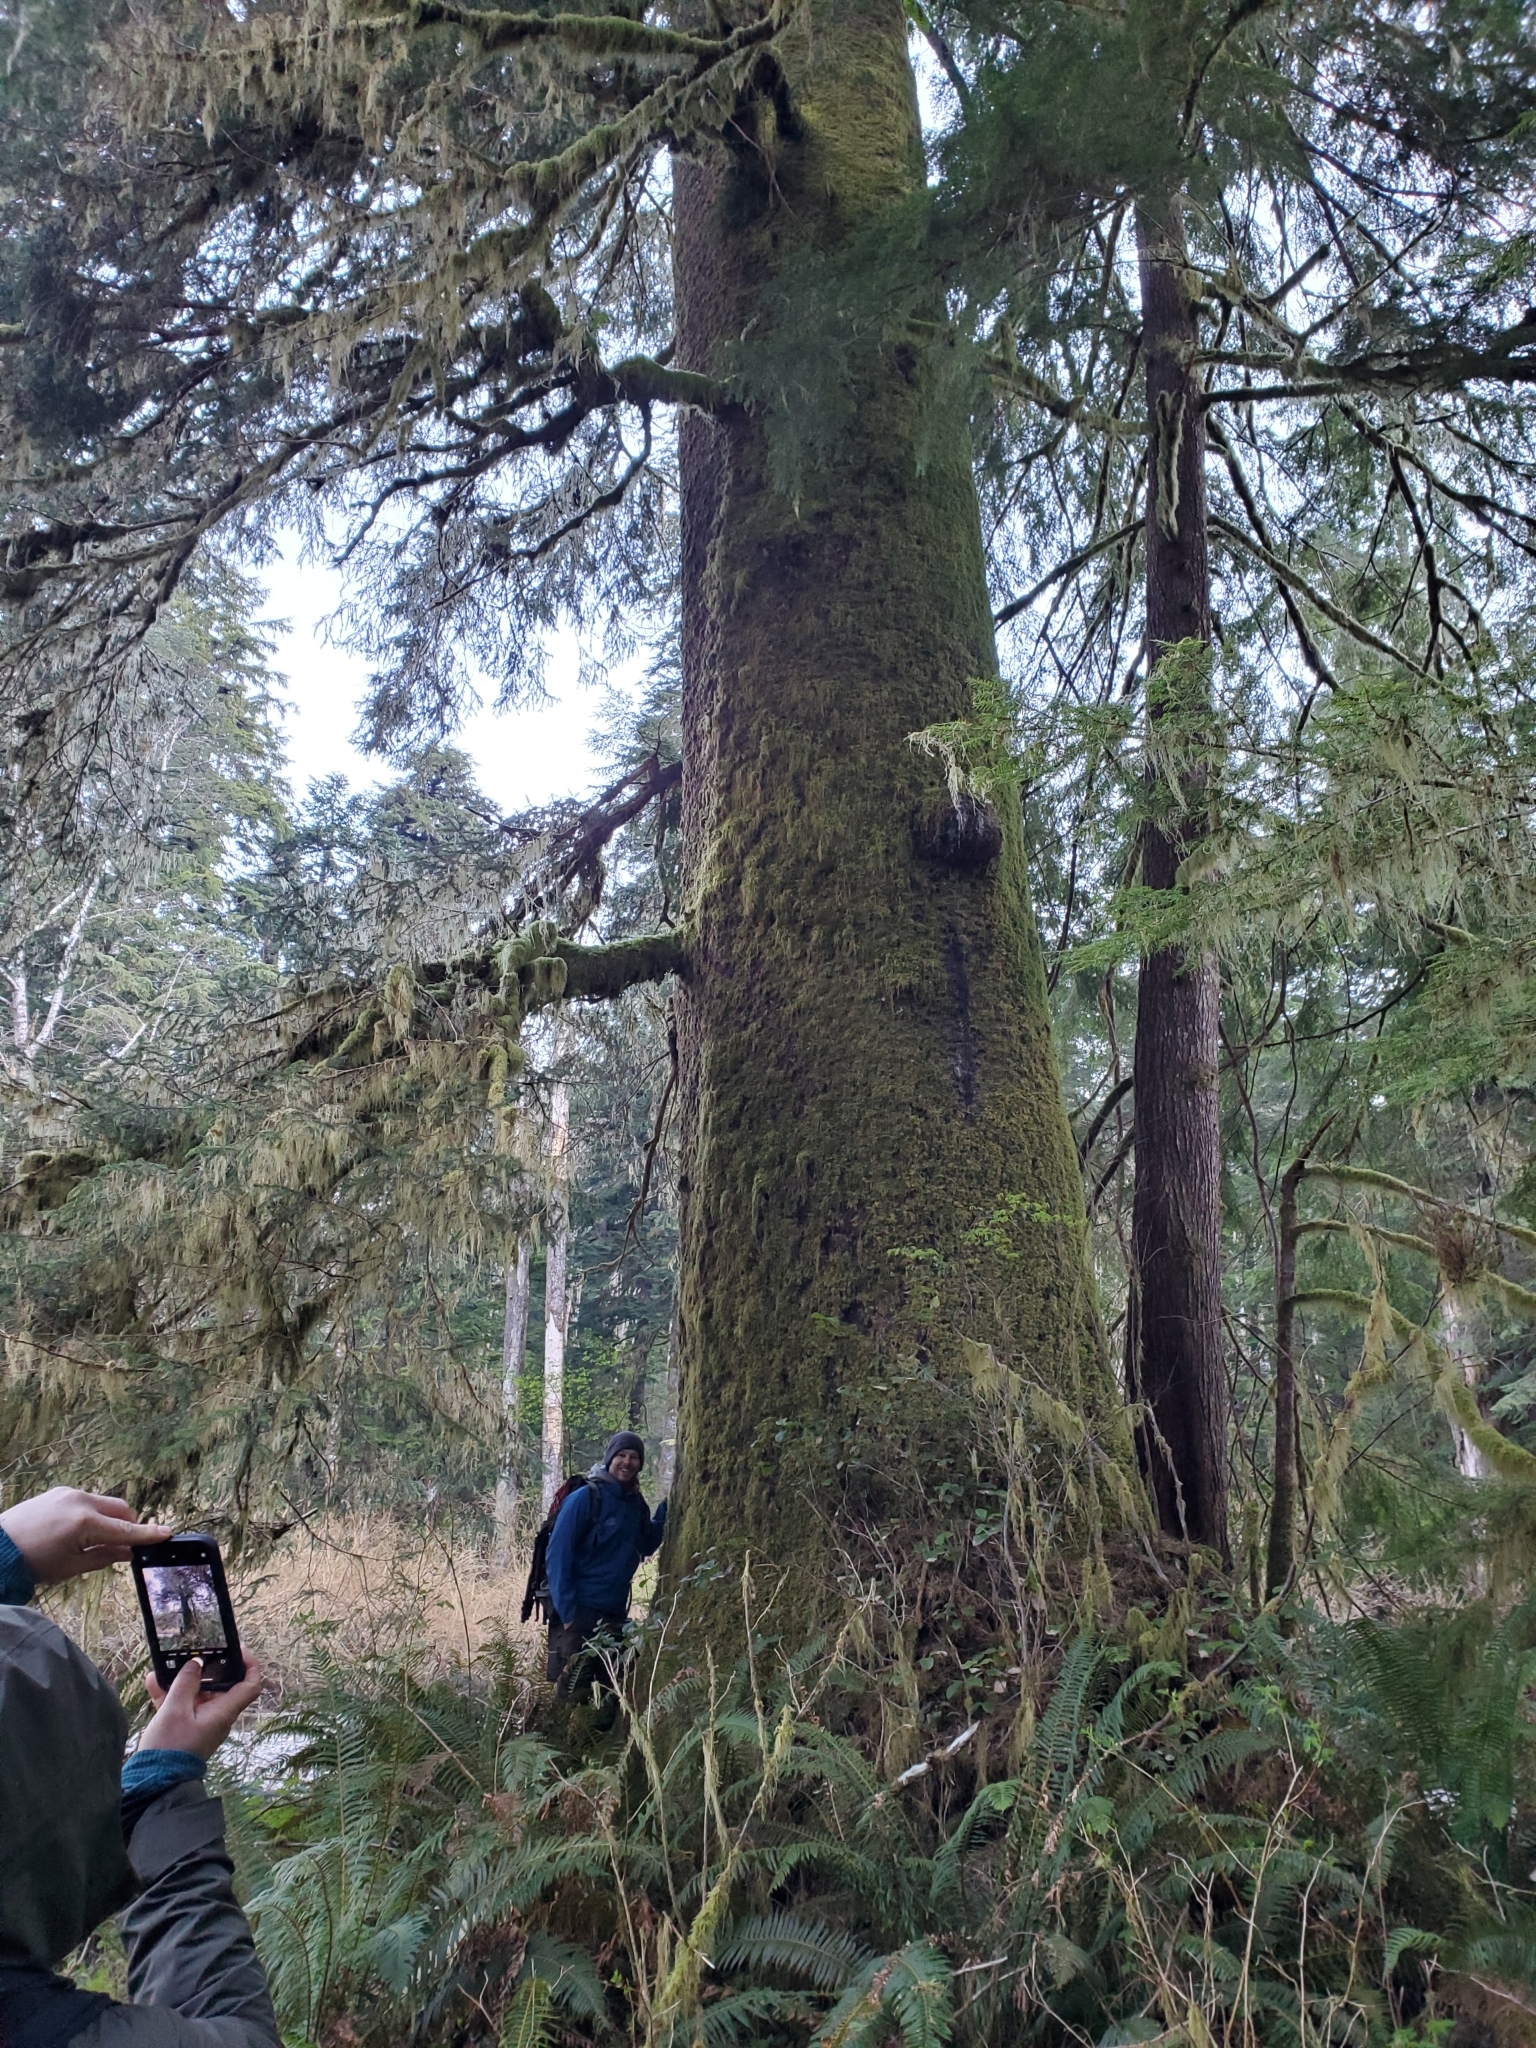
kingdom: Plantae
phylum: Tracheophyta
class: Pinopsida
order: Pinales
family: Pinaceae
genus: Picea
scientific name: Picea sitchensis
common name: Sitka spruce
